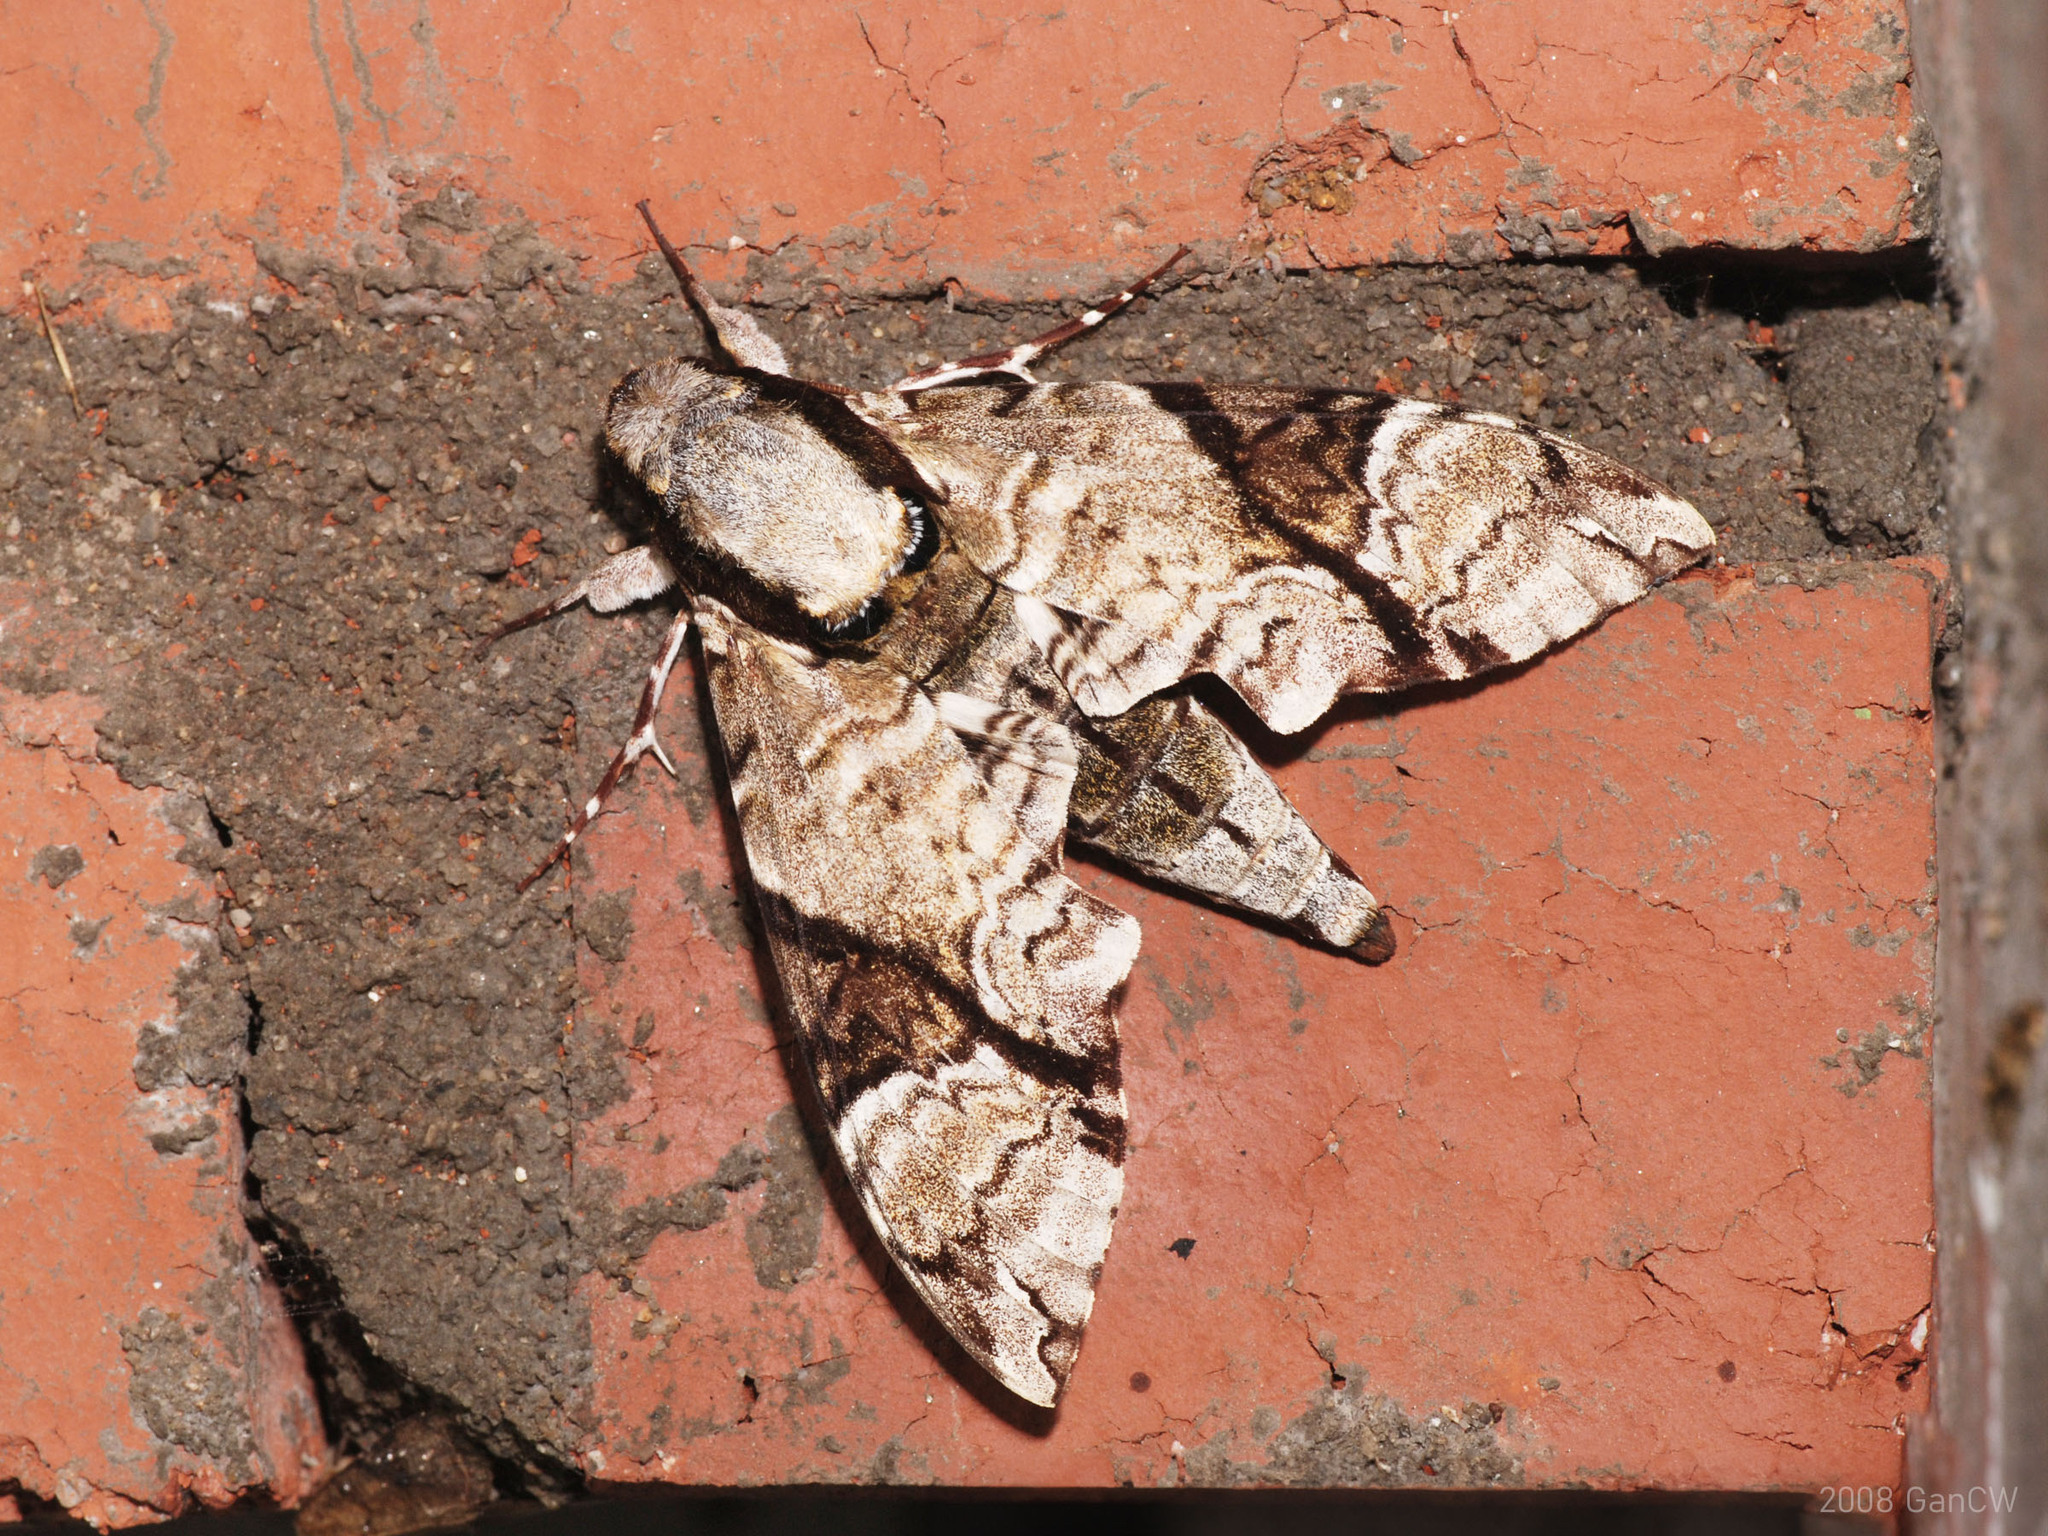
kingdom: Animalia
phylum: Arthropoda
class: Insecta
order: Lepidoptera
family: Sphingidae
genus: Megacorma
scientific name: Megacorma obliqua
